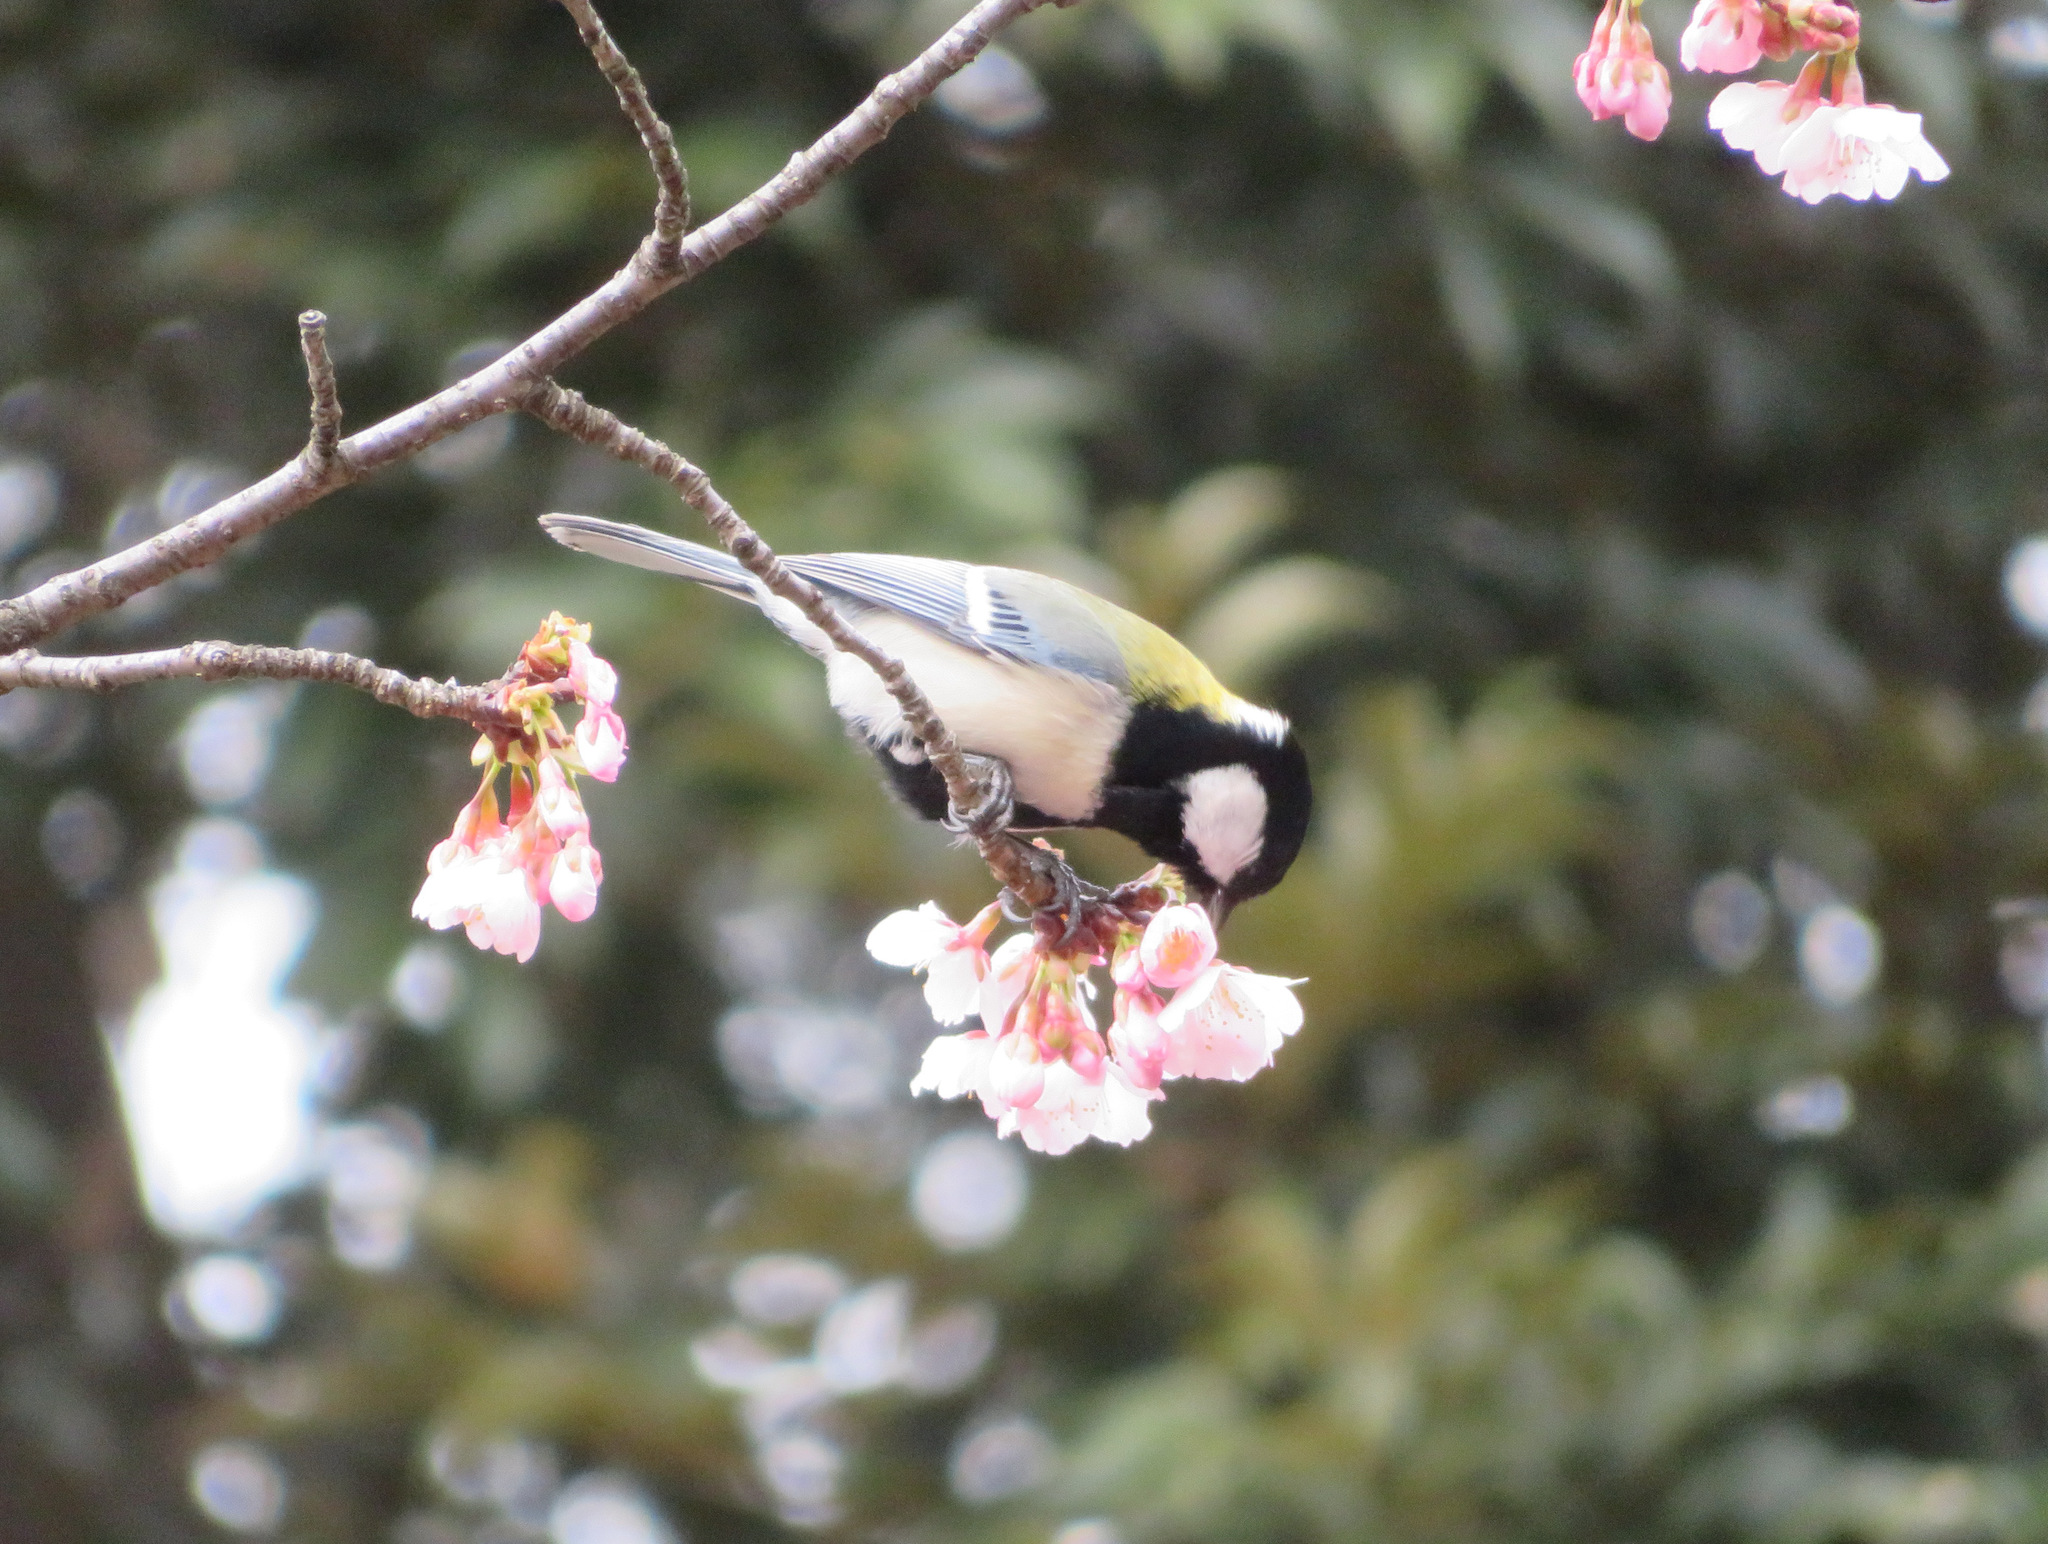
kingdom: Animalia
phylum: Chordata
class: Aves
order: Passeriformes
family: Paridae
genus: Parus
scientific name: Parus minor
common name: Japanese tit
